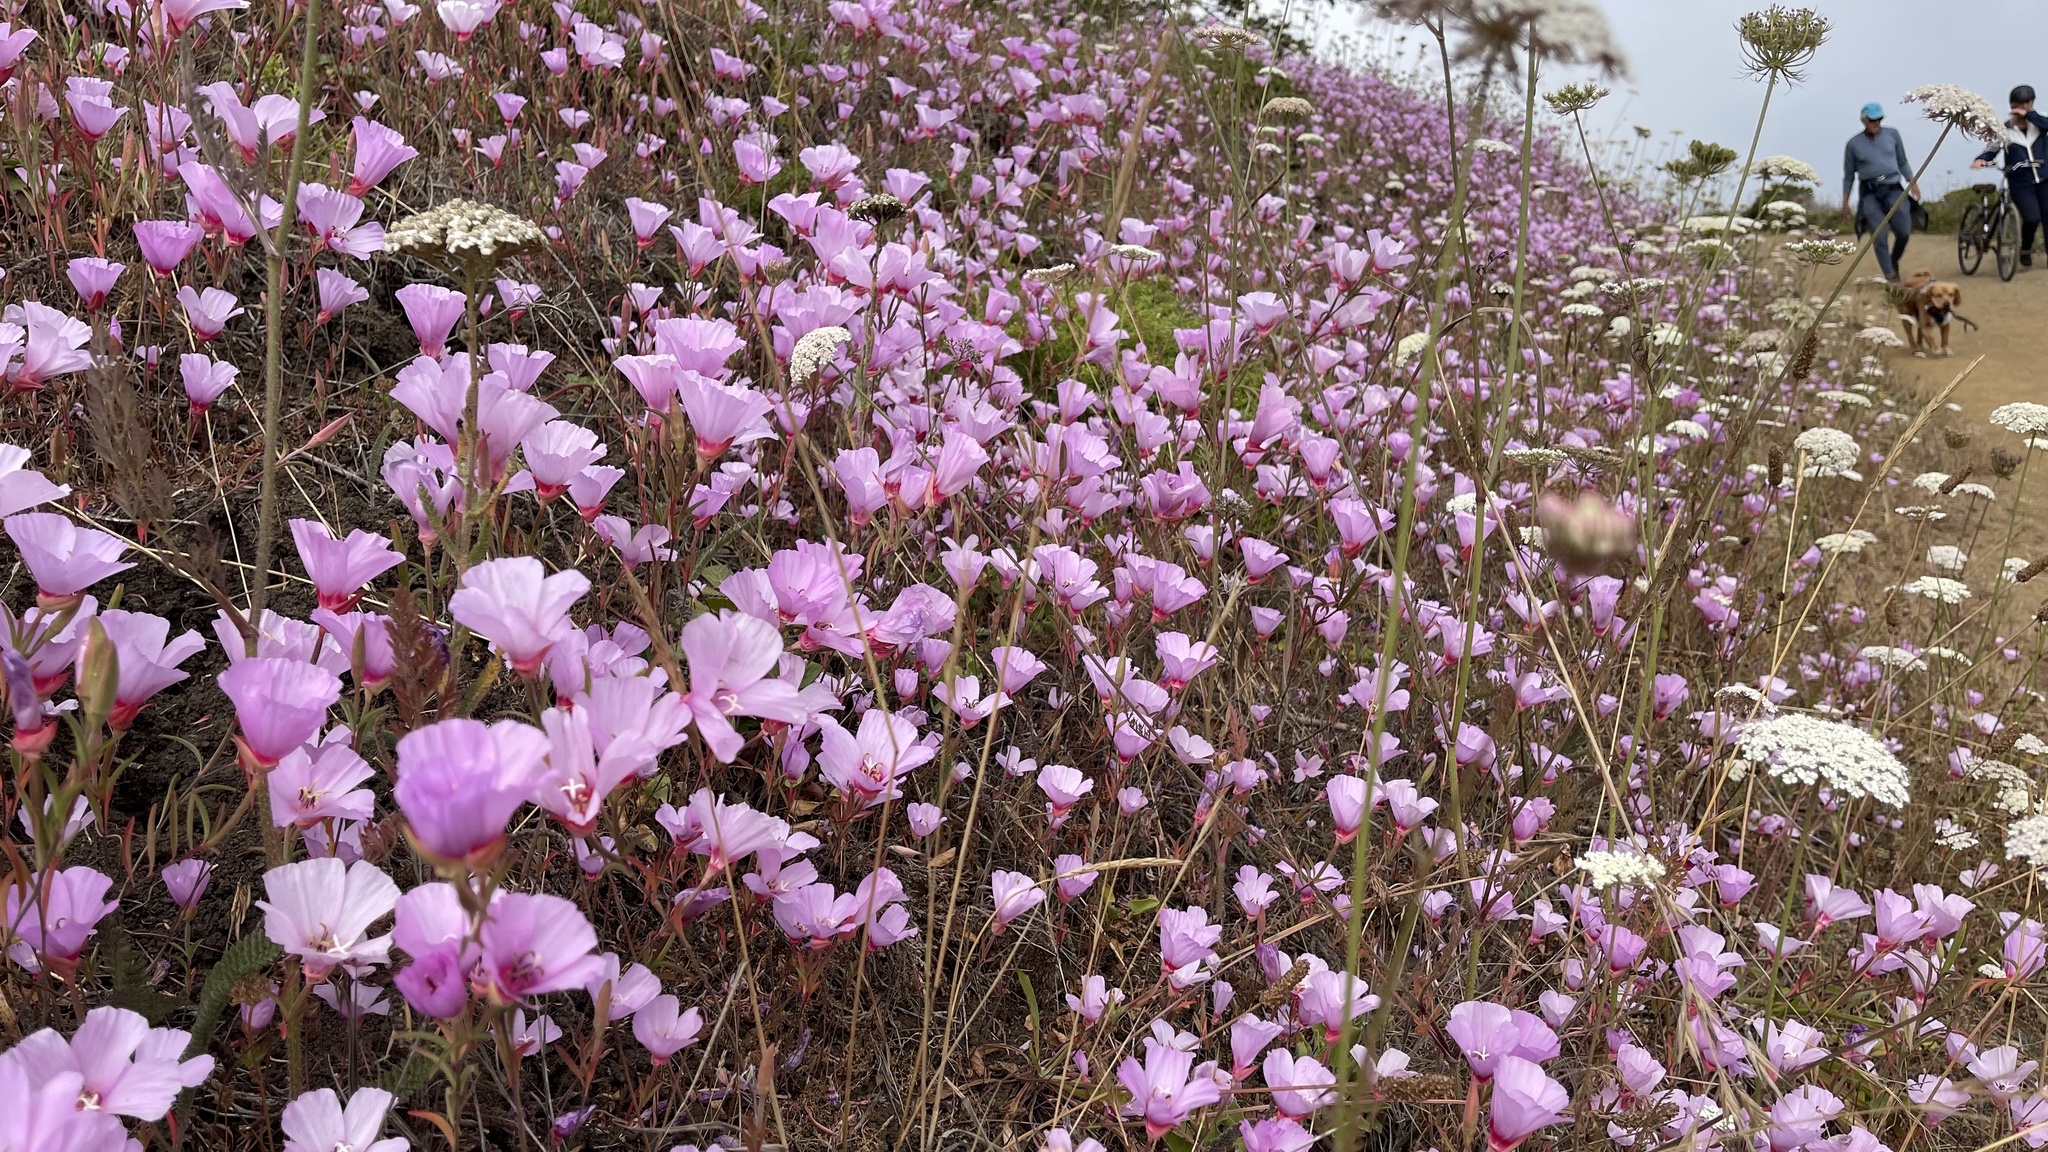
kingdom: Plantae
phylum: Tracheophyta
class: Magnoliopsida
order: Myrtales
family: Onagraceae
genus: Clarkia
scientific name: Clarkia rubicunda
